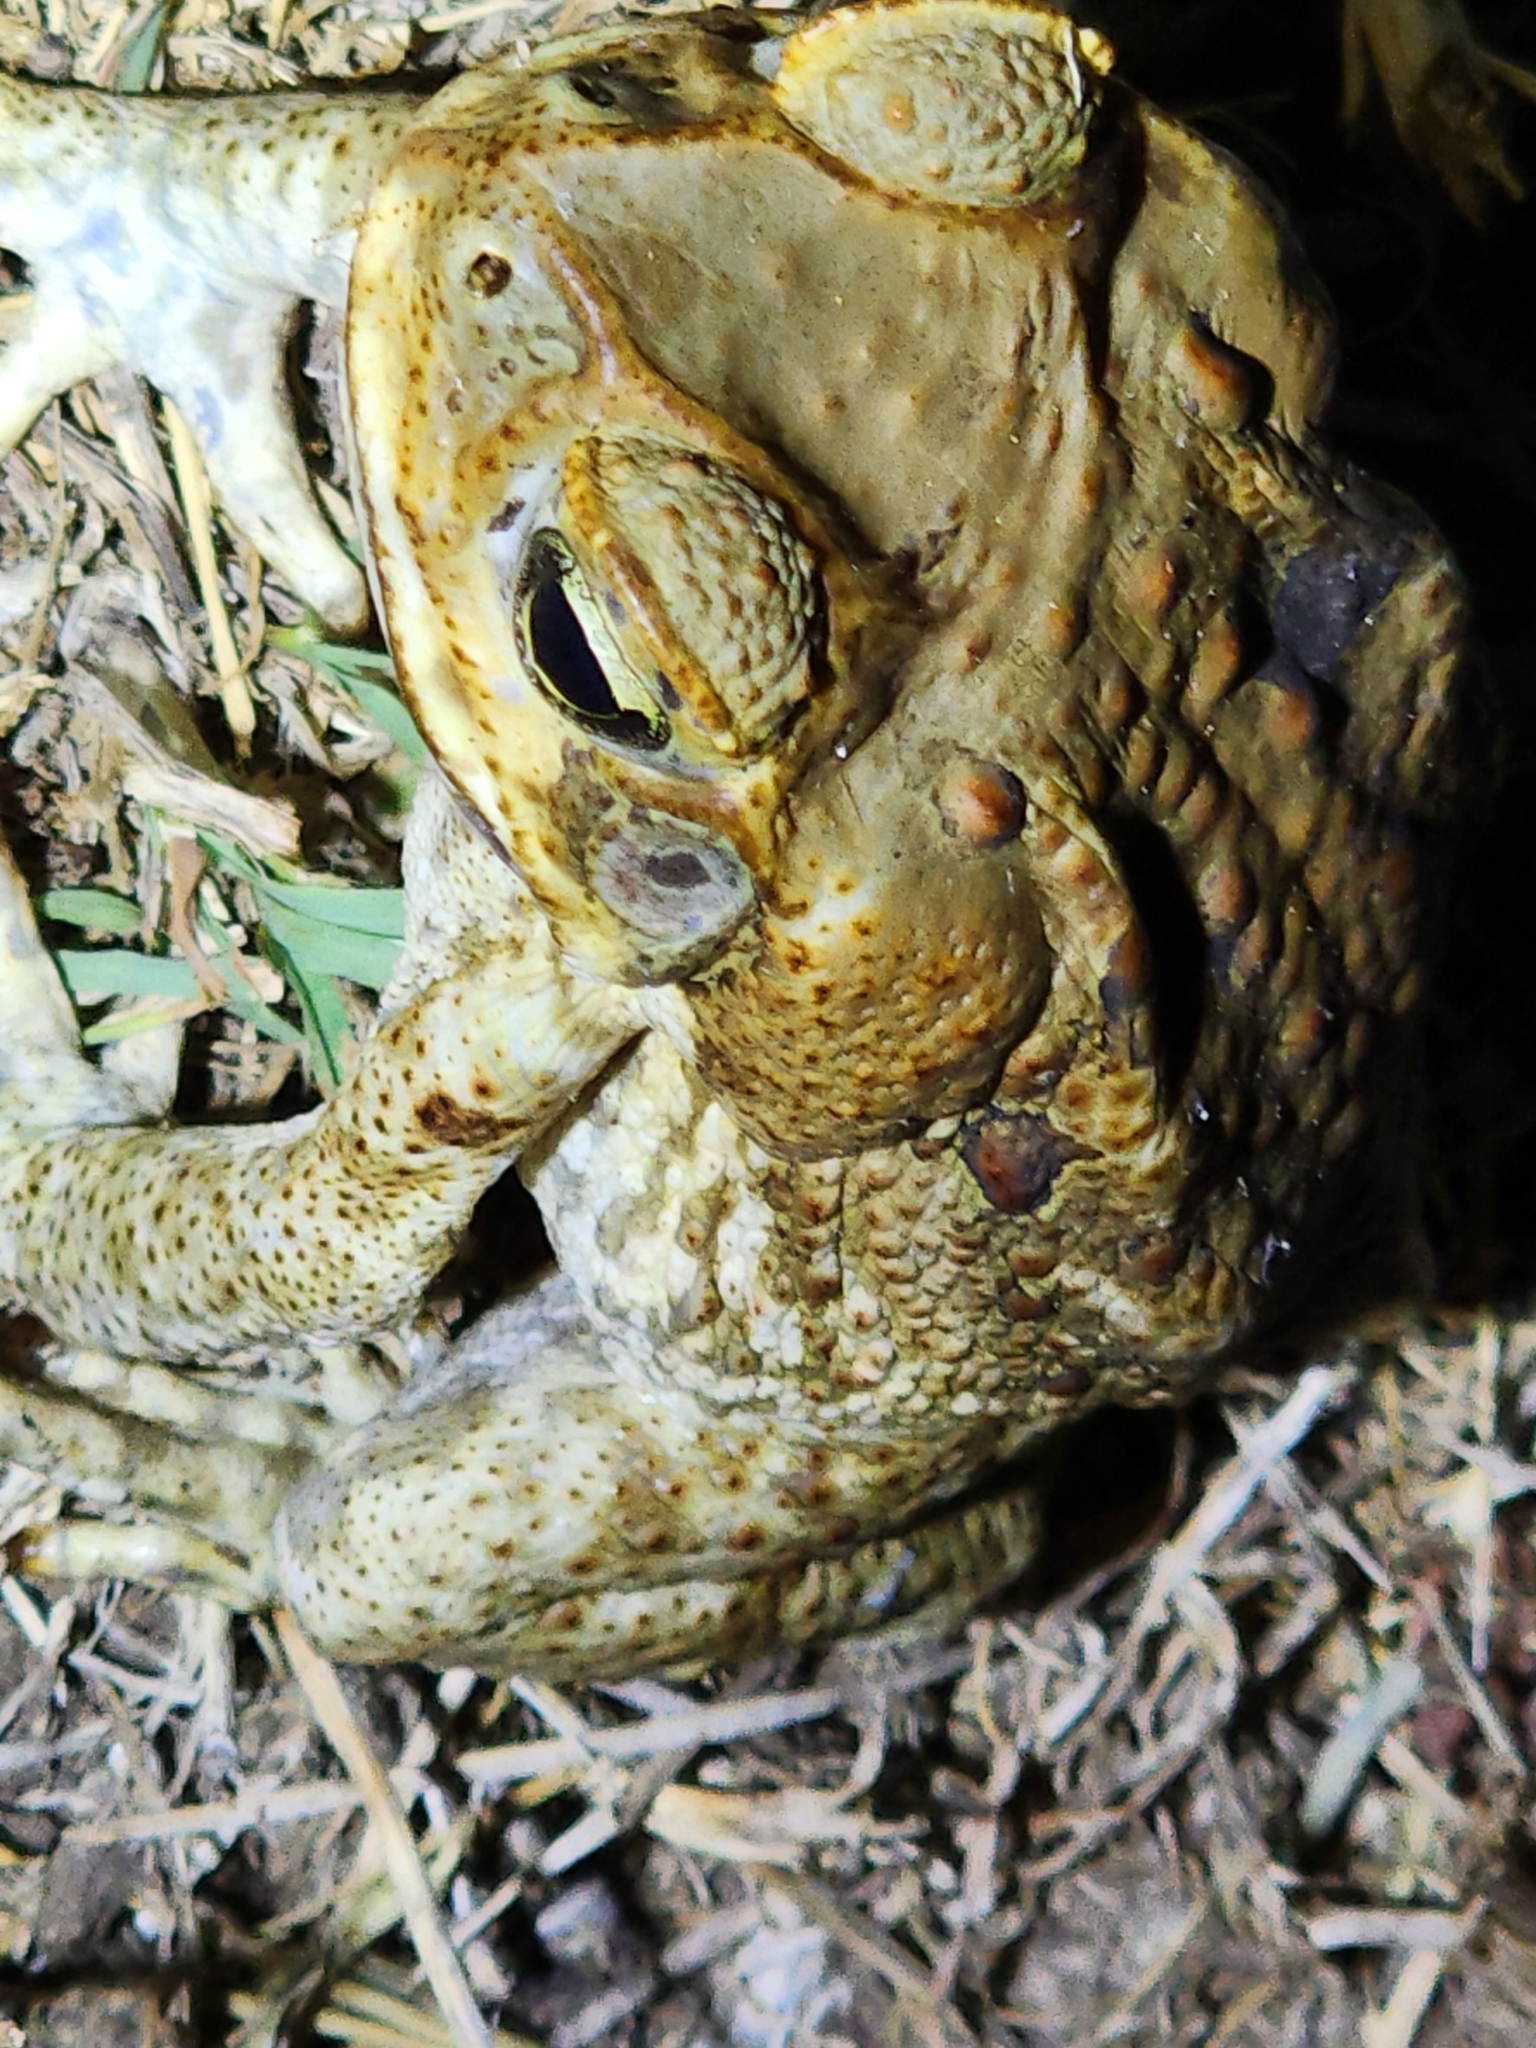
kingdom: Animalia
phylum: Chordata
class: Amphibia
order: Anura
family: Bufonidae
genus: Rhinella
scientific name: Rhinella marina
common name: Cane toad
